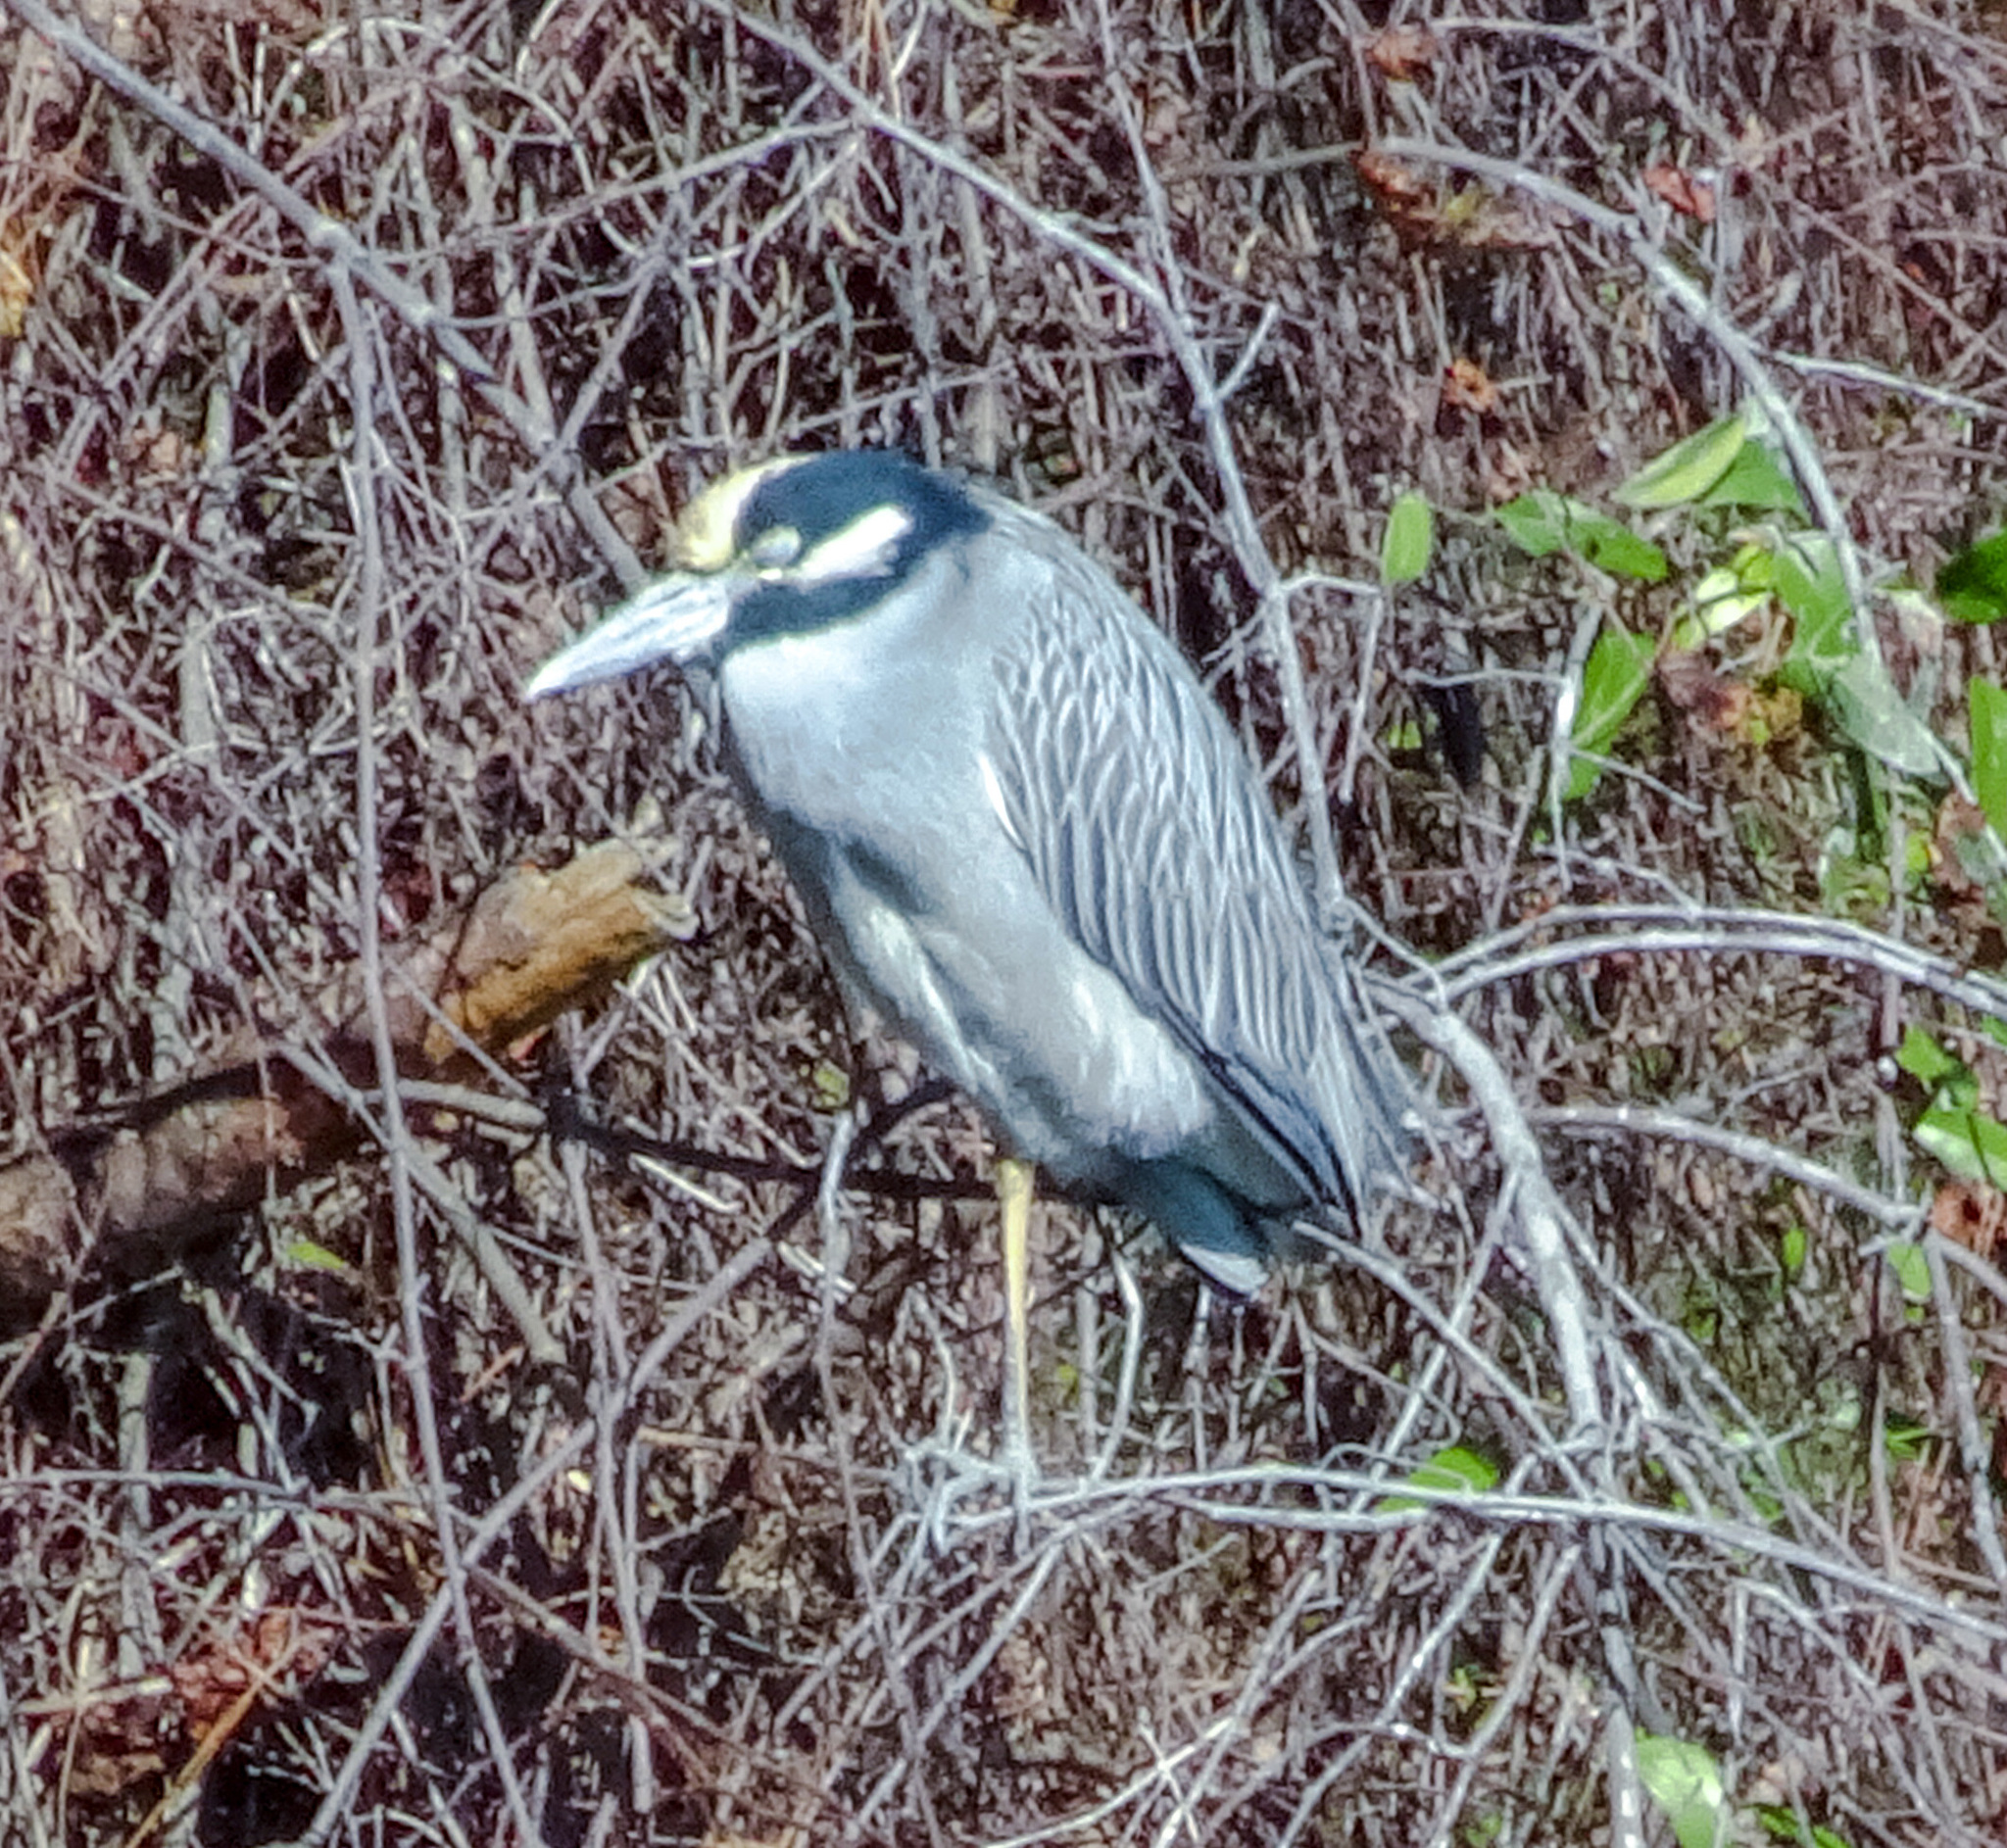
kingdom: Animalia
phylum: Chordata
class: Aves
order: Pelecaniformes
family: Ardeidae
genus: Nyctanassa
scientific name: Nyctanassa violacea
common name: Yellow-crowned night heron
